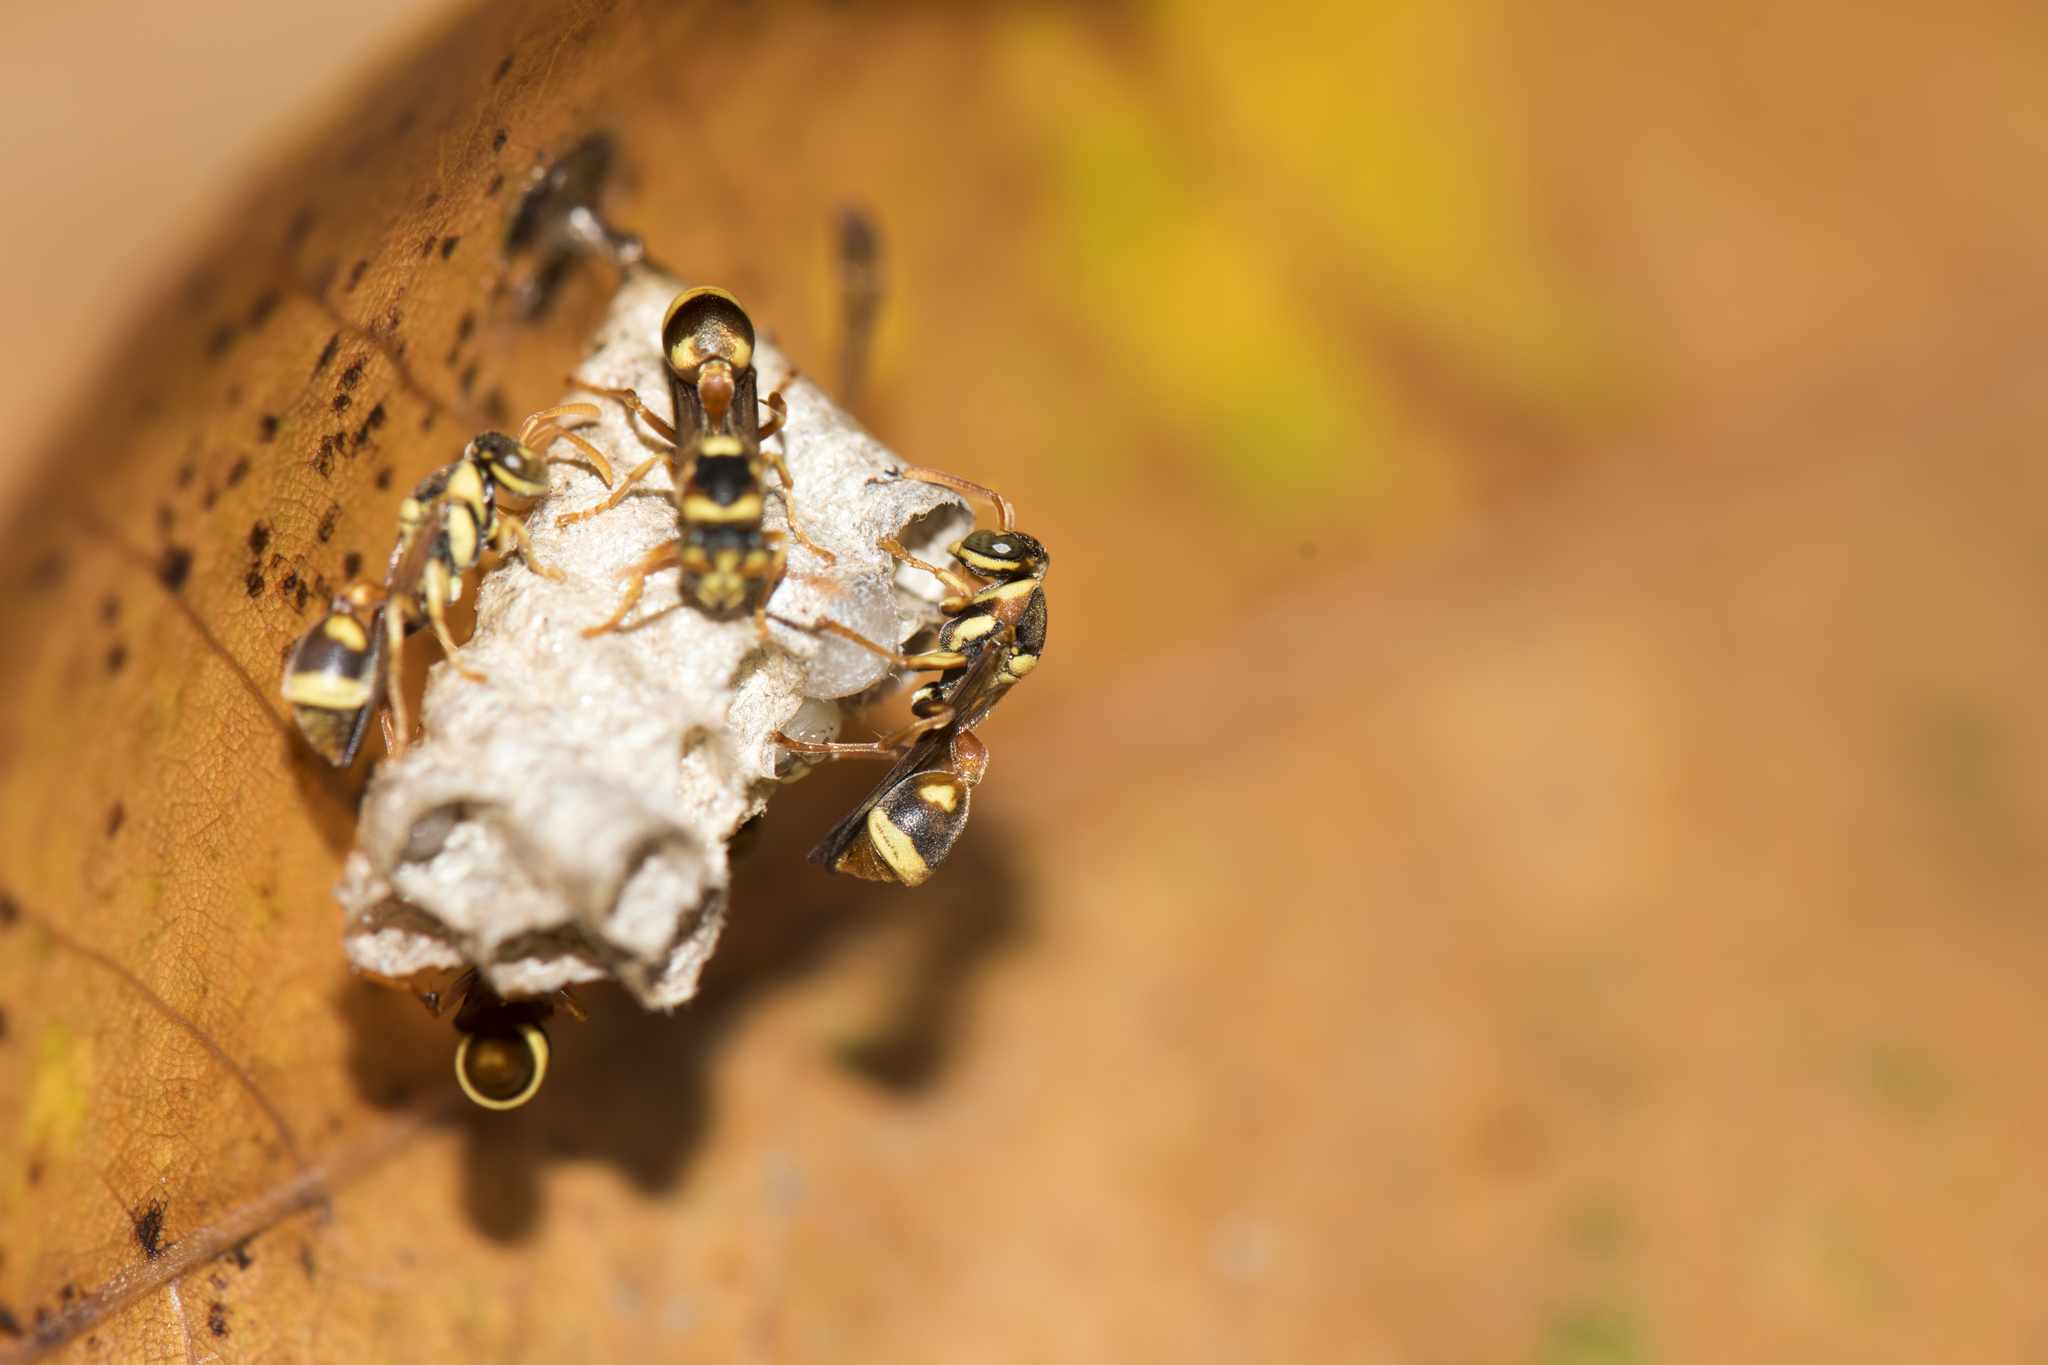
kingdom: Animalia
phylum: Arthropoda
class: Insecta
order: Hymenoptera
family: Vespidae
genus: Ropalidia
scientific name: Ropalidia fasciata
